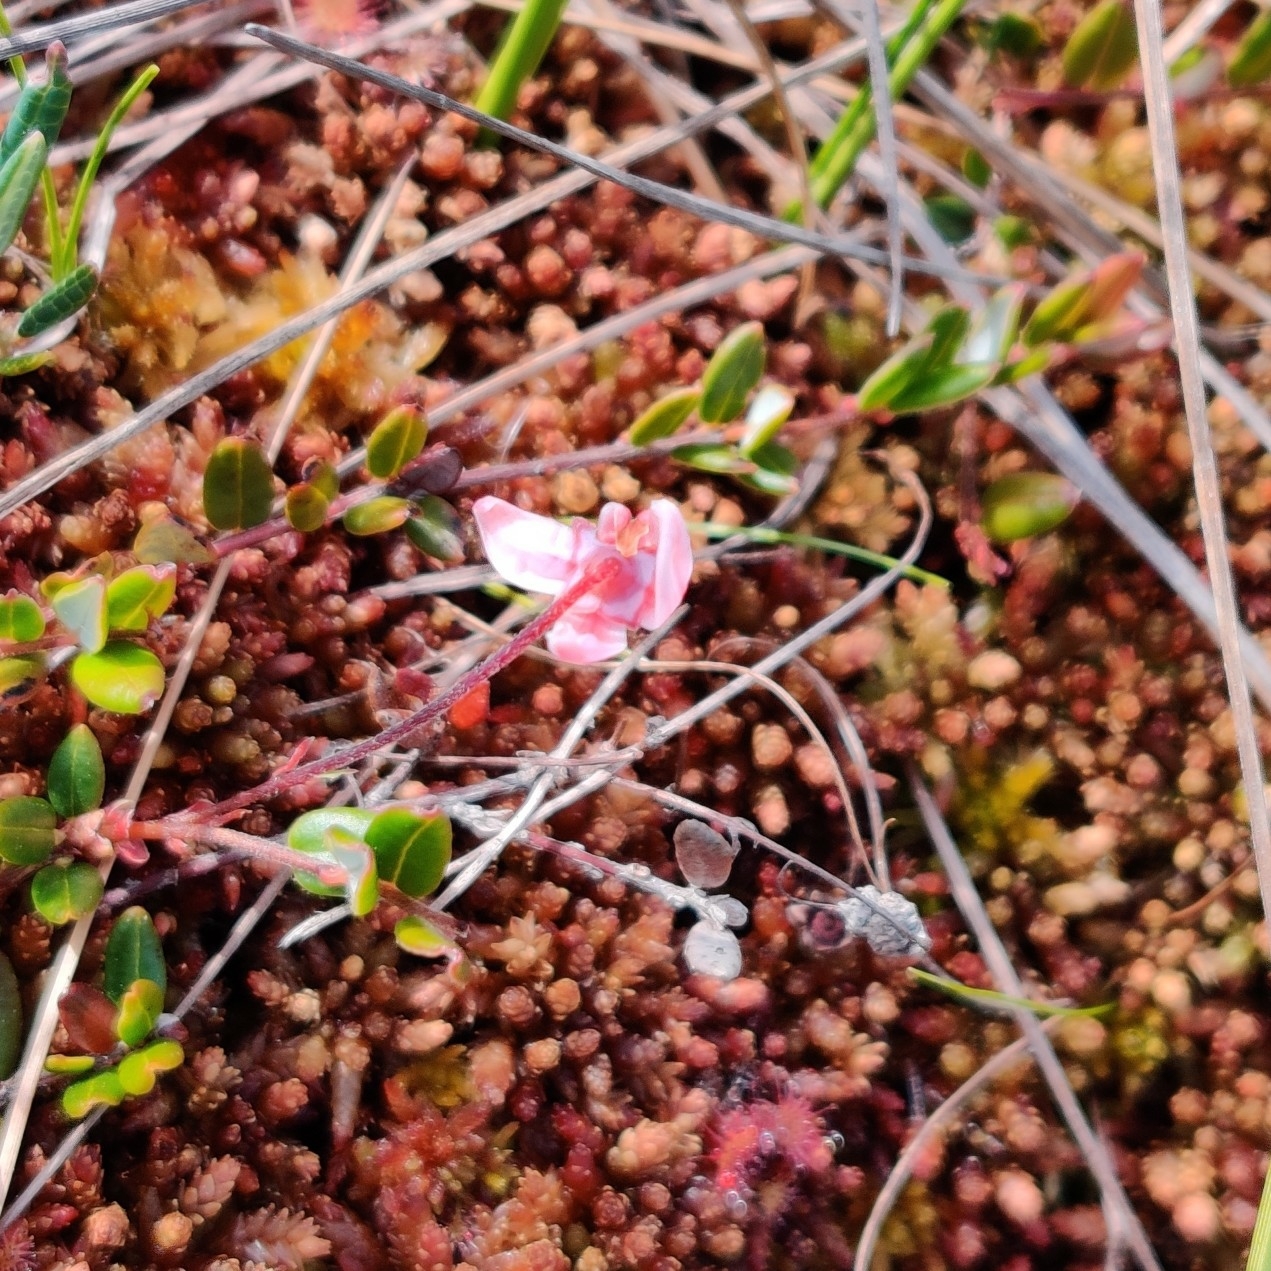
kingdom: Plantae
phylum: Tracheophyta
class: Magnoliopsida
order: Ericales
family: Ericaceae
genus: Vaccinium
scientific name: Vaccinium oxycoccos
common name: Cranberry
